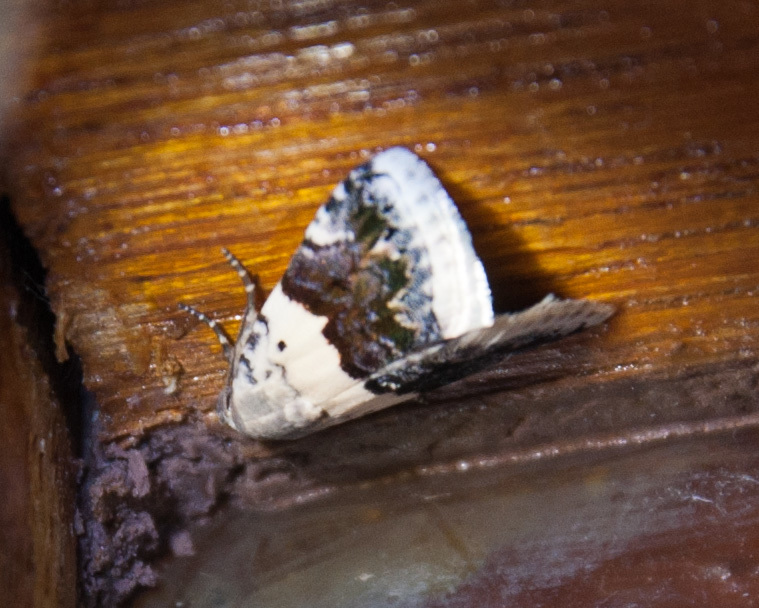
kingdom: Animalia
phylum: Arthropoda
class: Insecta
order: Lepidoptera
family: Noctuidae
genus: Eublemma
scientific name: Eublemma bipartita
